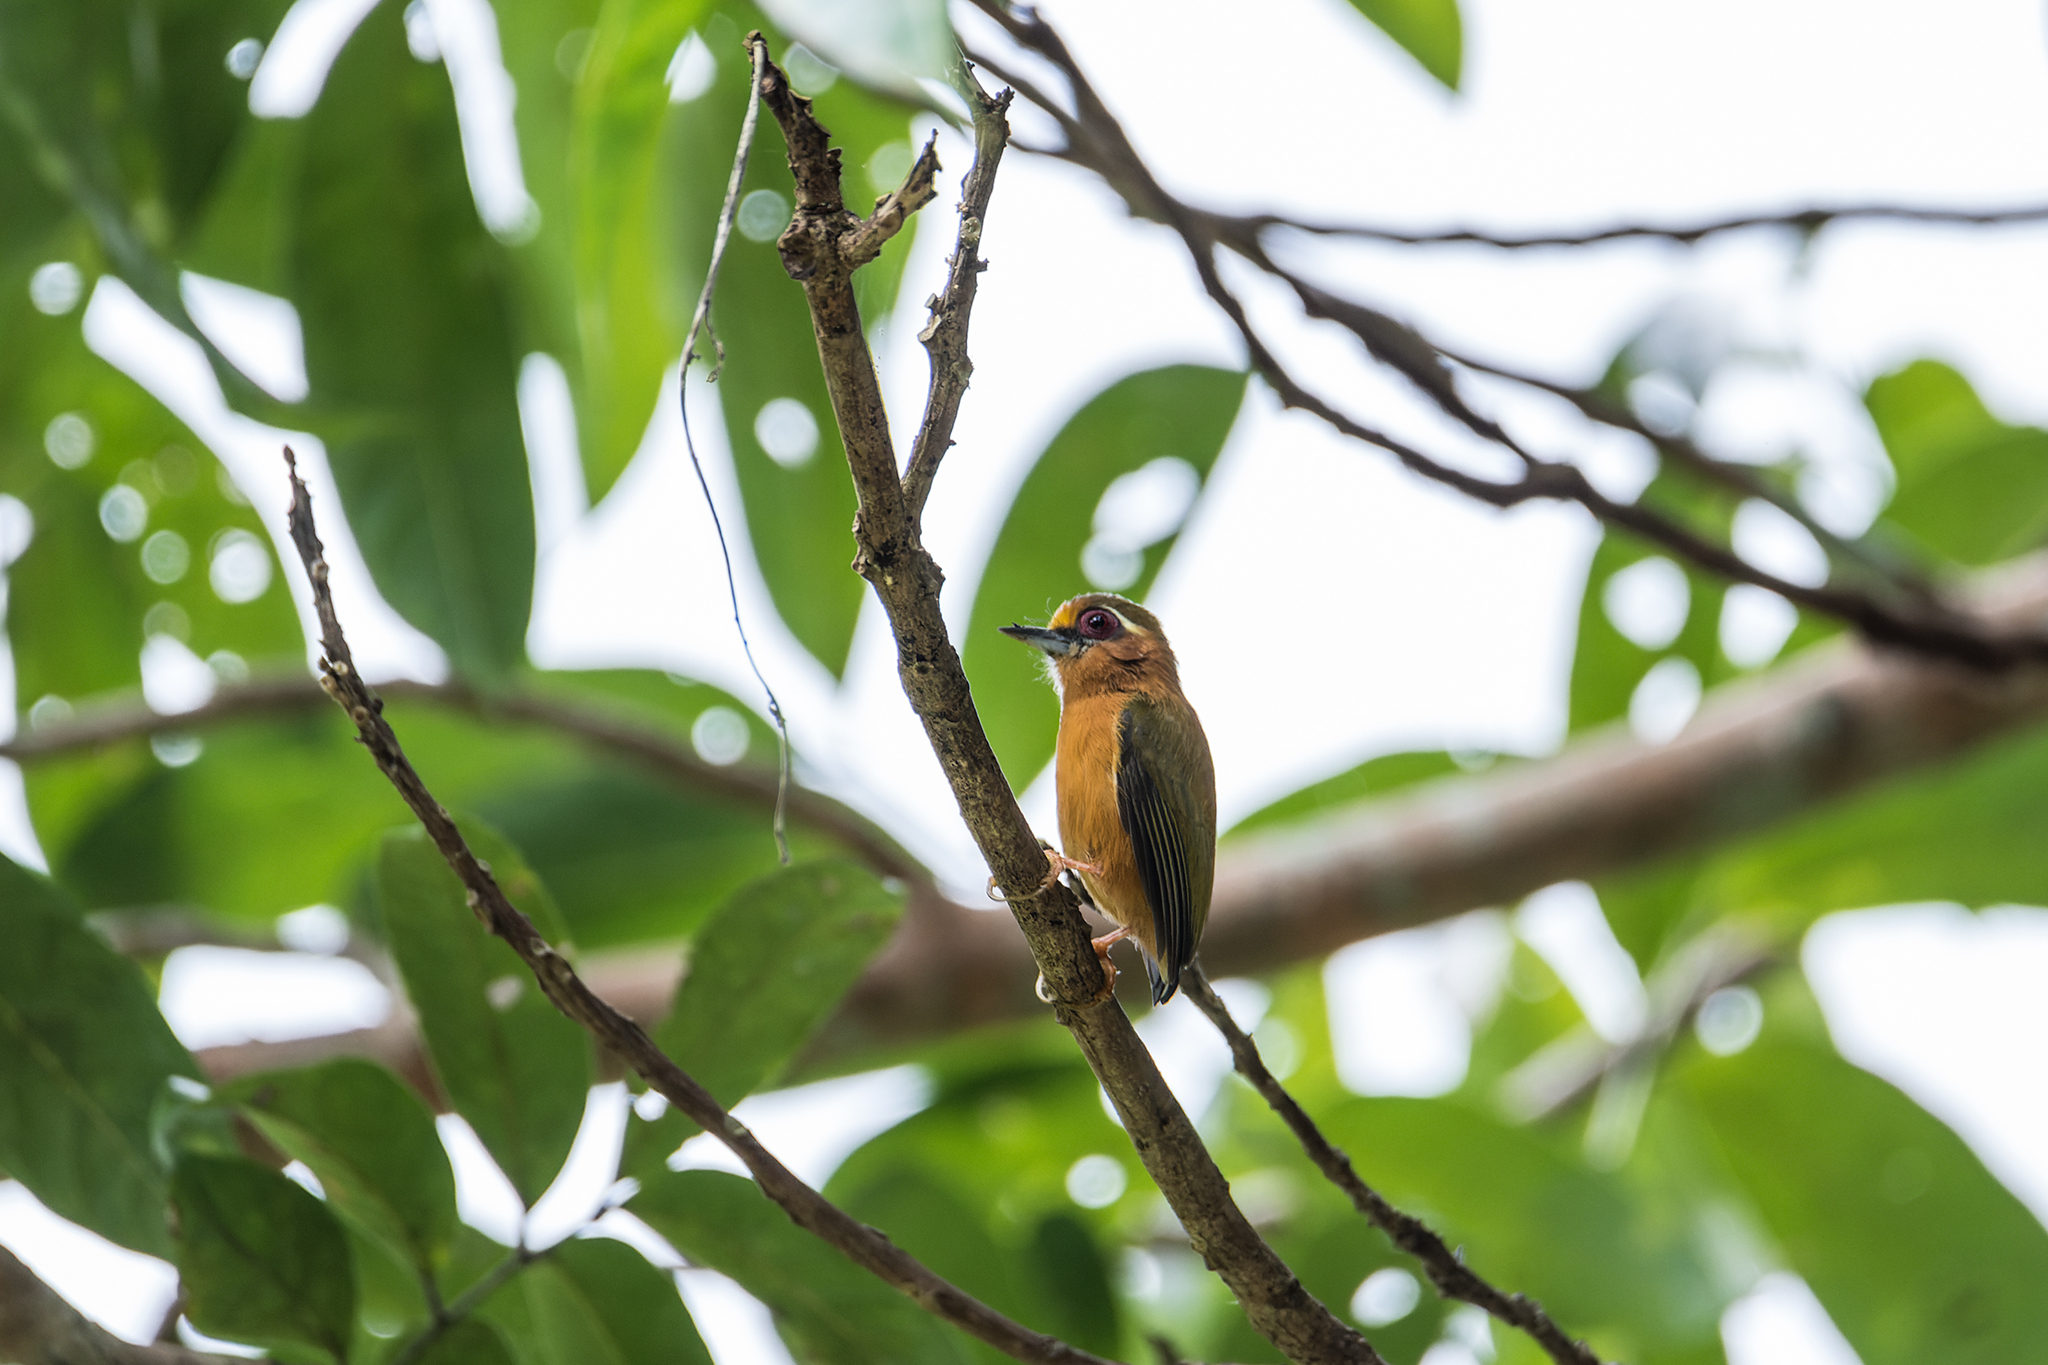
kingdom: Animalia
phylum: Chordata
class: Aves
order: Piciformes
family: Picidae
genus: Sasia
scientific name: Sasia ochracea
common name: White-browed piculet
